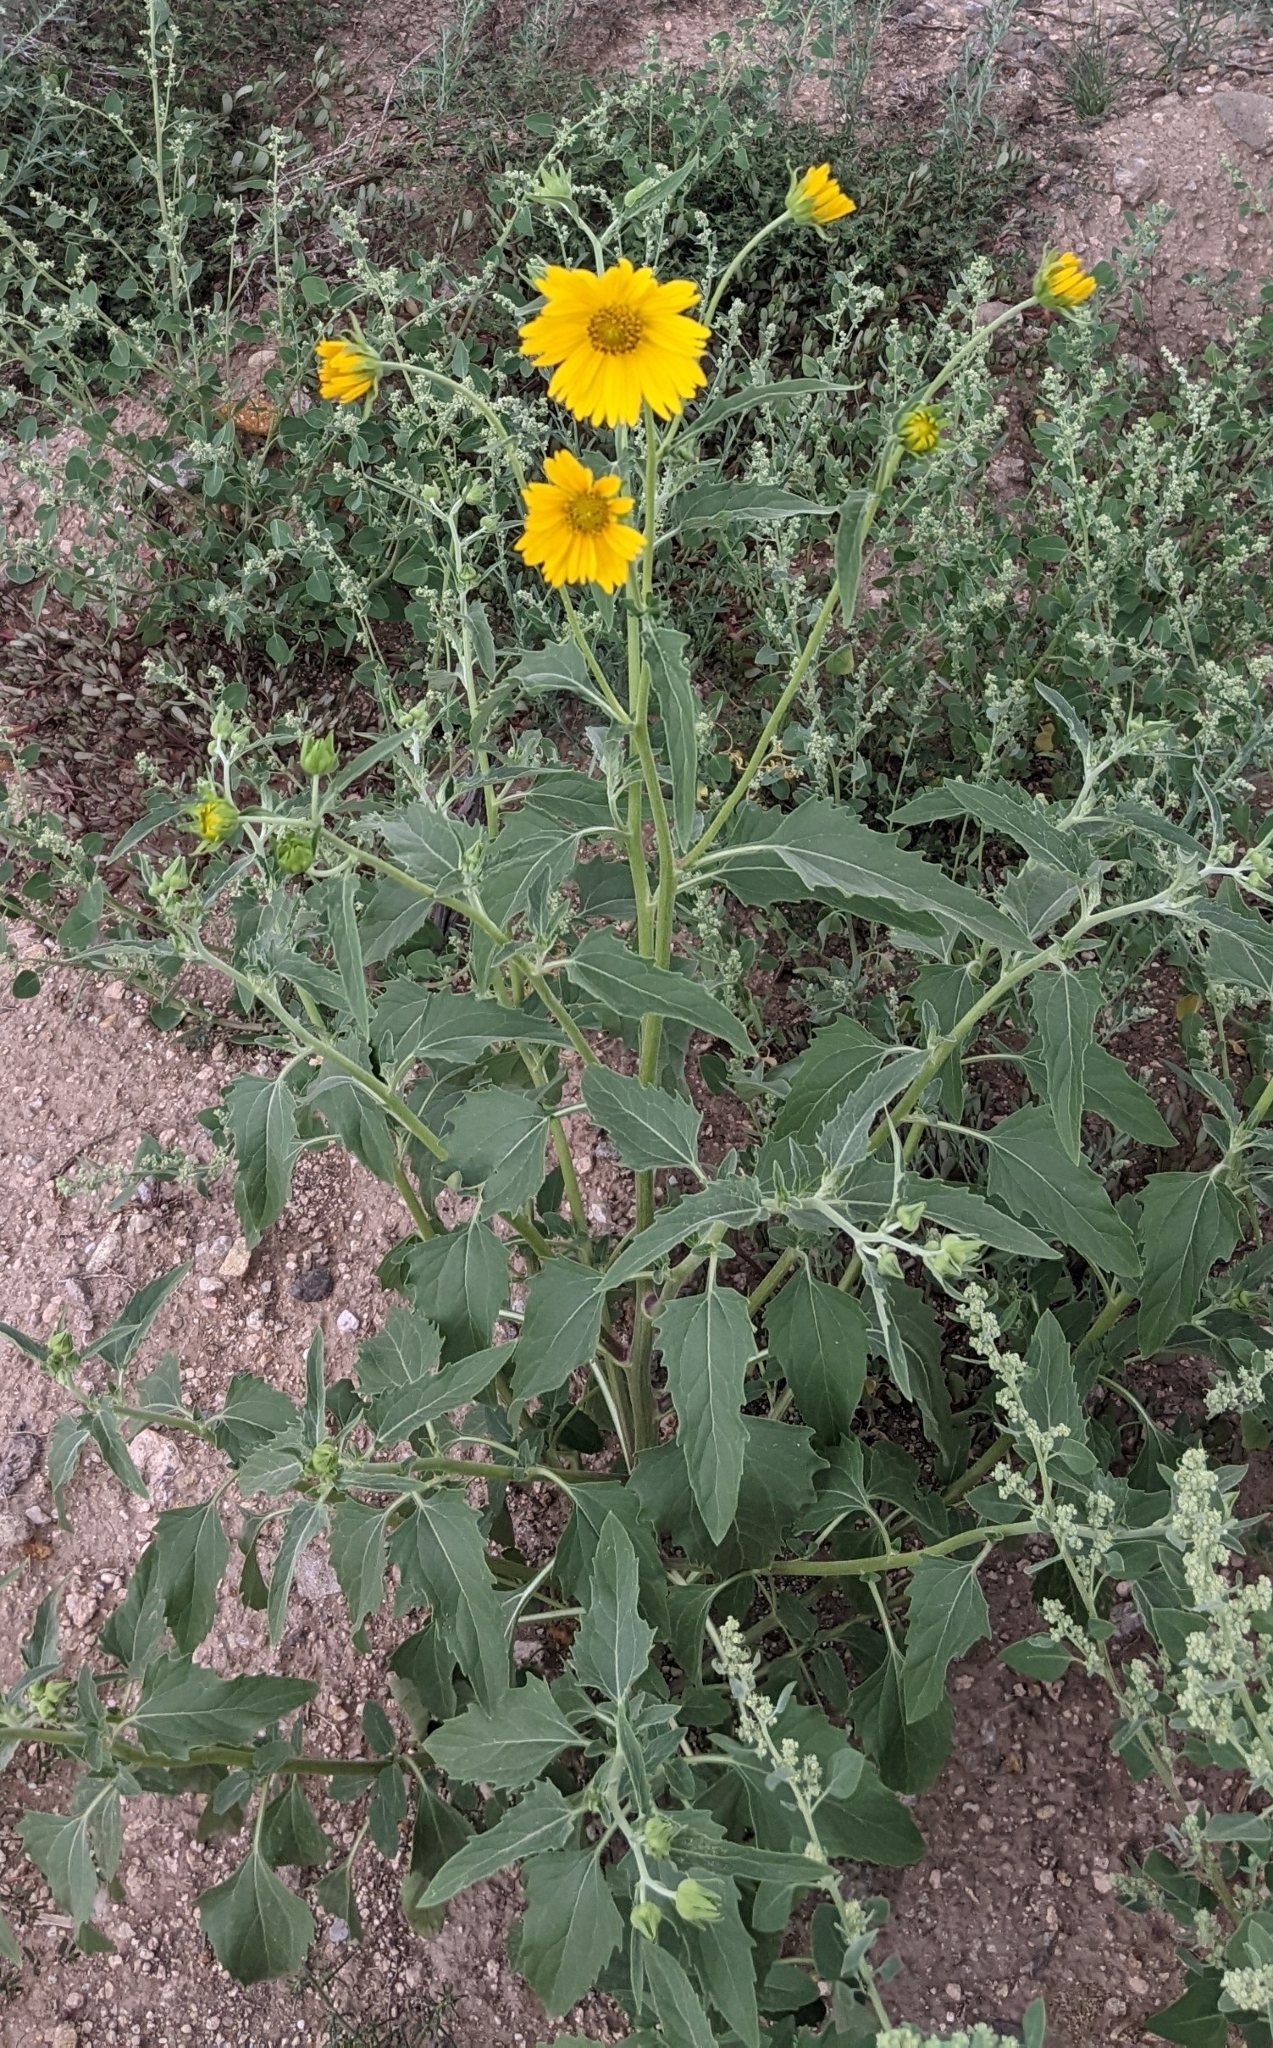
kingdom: Plantae
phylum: Tracheophyta
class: Magnoliopsida
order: Asterales
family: Asteraceae
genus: Verbesina
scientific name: Verbesina encelioides
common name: Golden crownbeard
